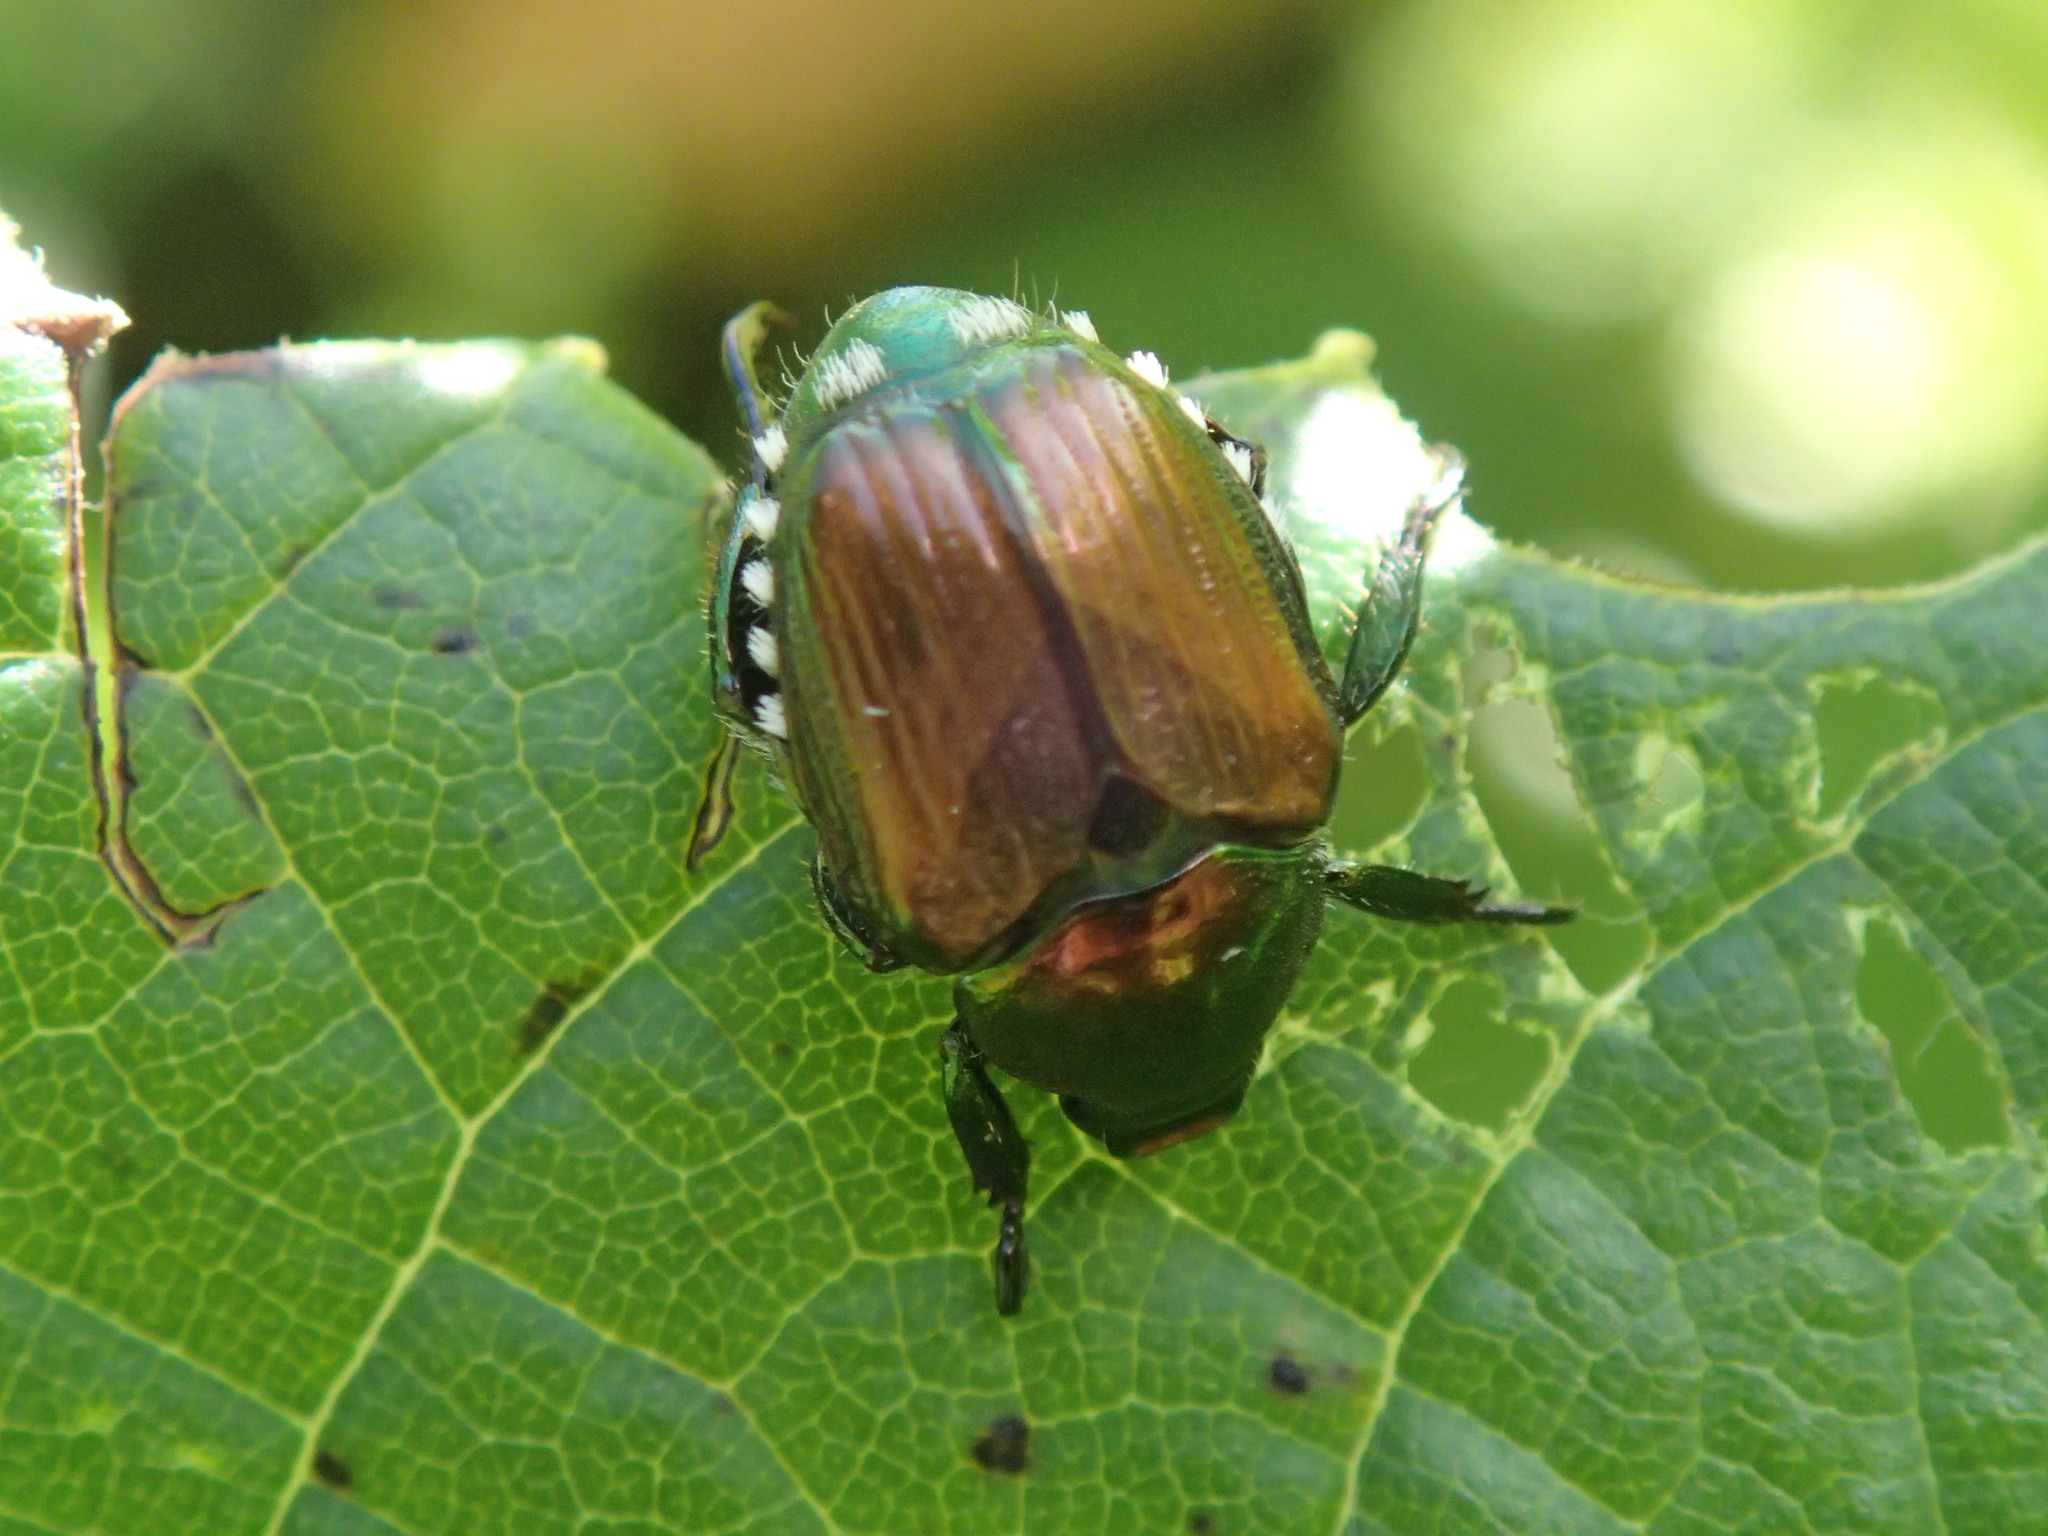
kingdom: Animalia
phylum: Arthropoda
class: Insecta
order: Coleoptera
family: Scarabaeidae
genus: Popillia
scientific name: Popillia japonica
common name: Japanese beetle
